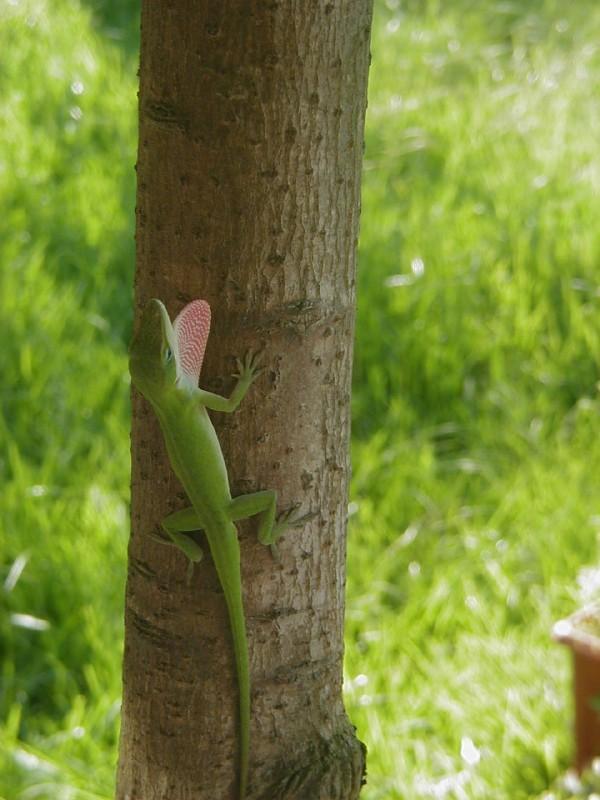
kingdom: Animalia
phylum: Chordata
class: Squamata
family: Dactyloidae
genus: Anolis
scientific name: Anolis carolinensis
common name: Green anole
